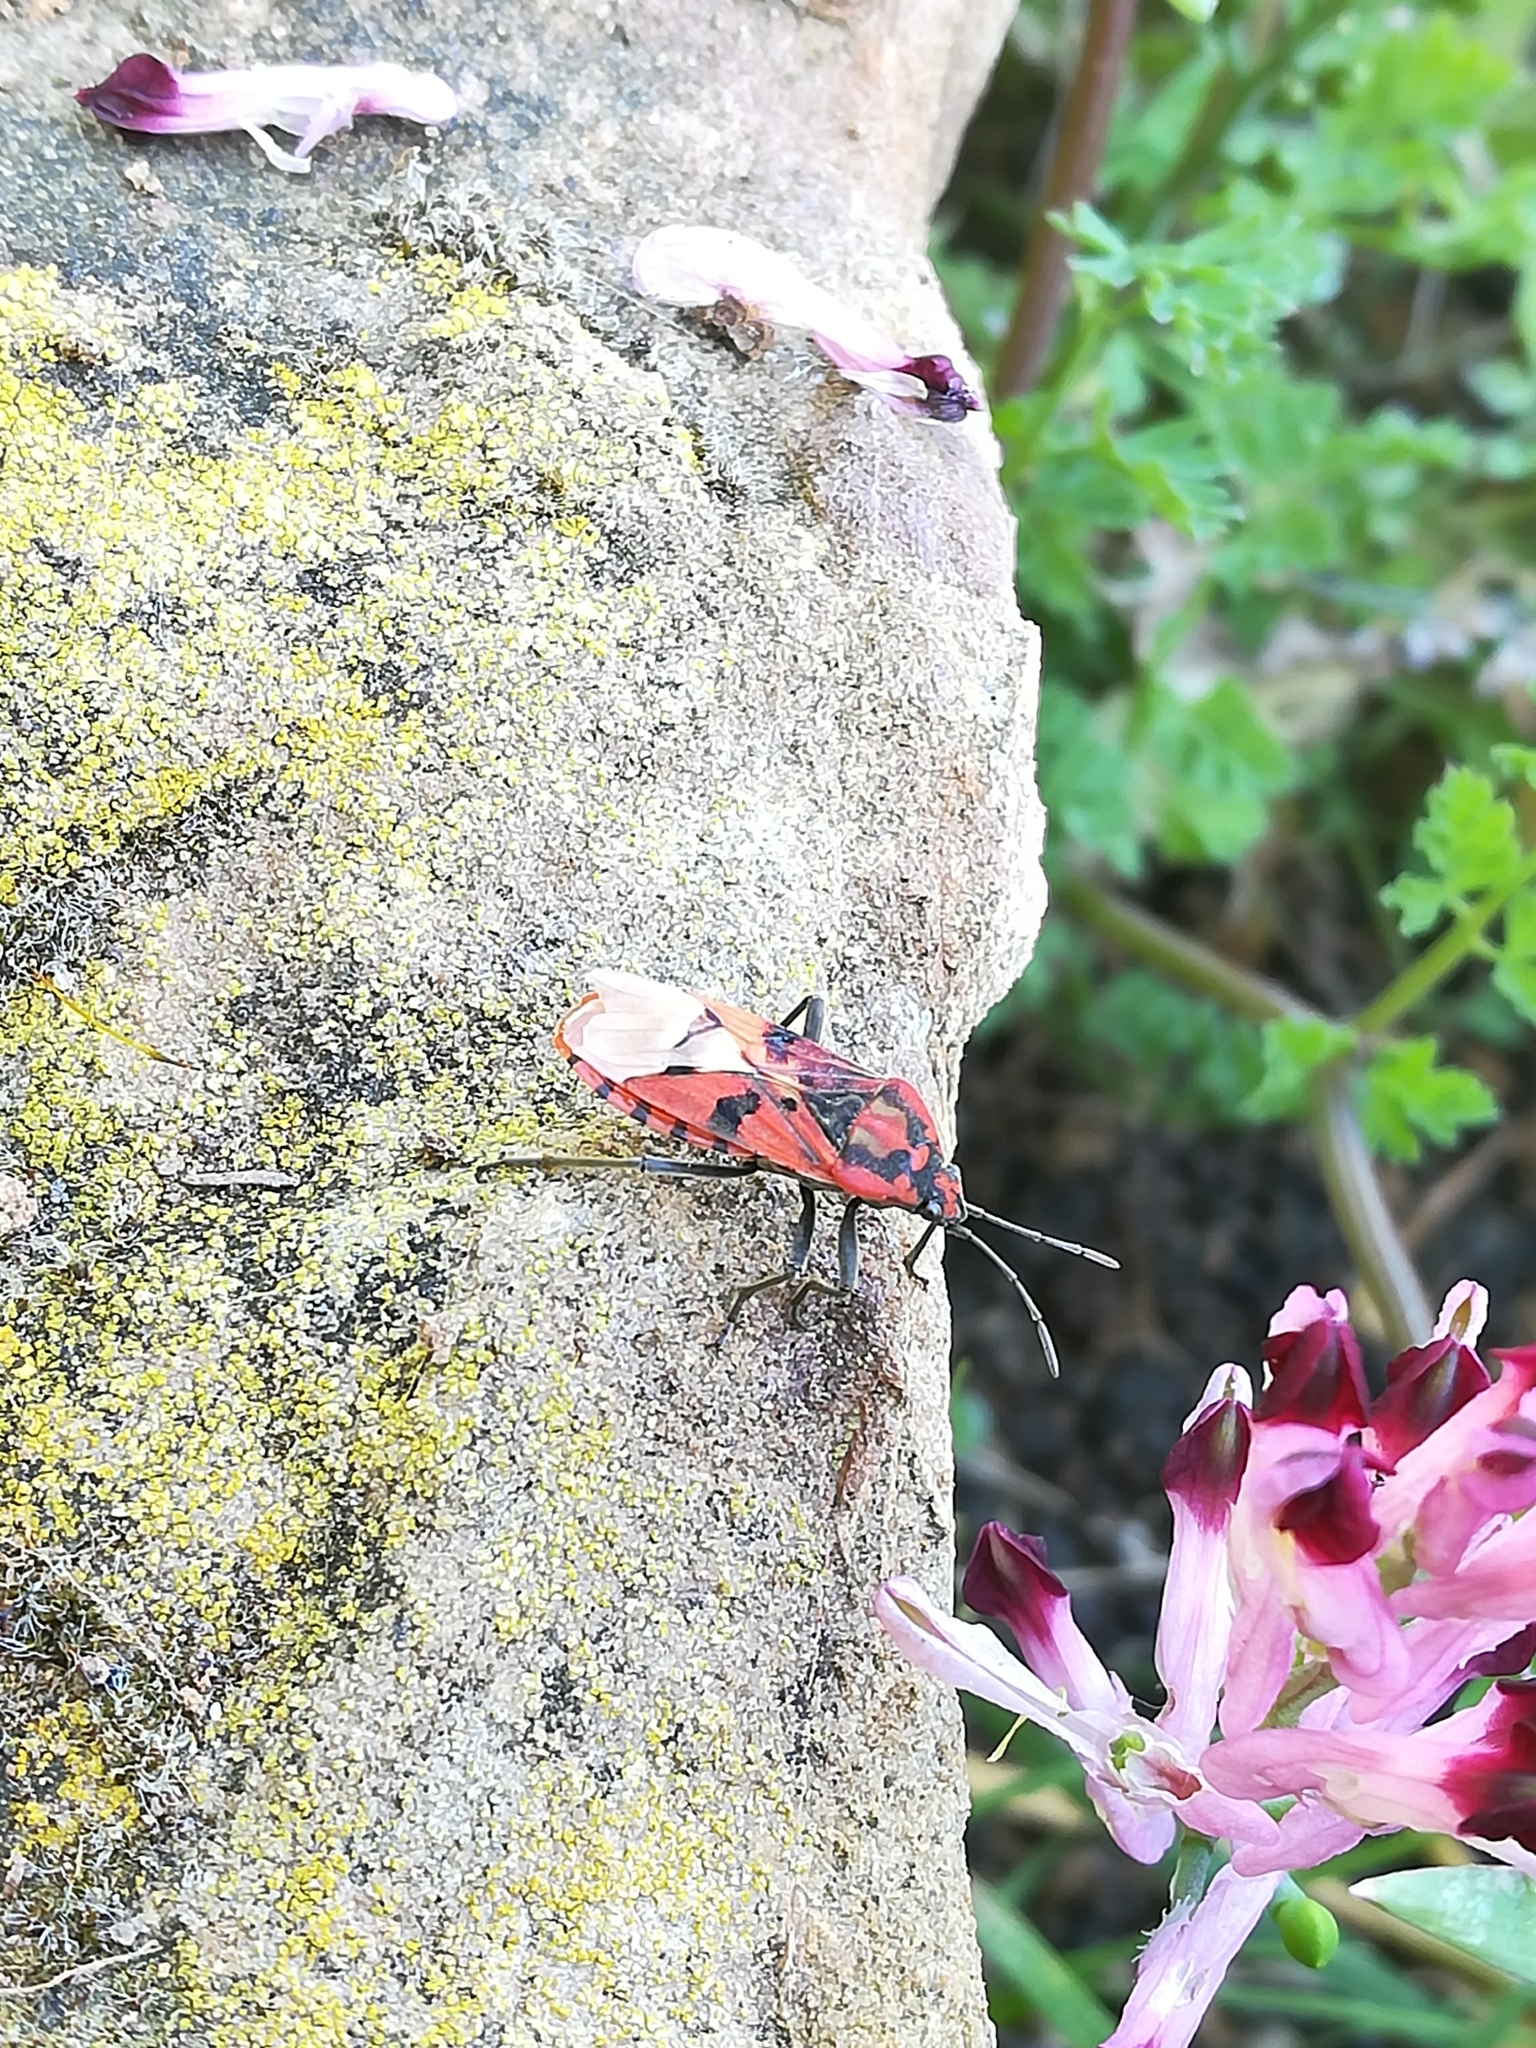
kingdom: Animalia
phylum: Arthropoda
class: Insecta
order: Hemiptera
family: Lygaeidae
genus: Spilostethus
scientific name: Spilostethus pandurus
